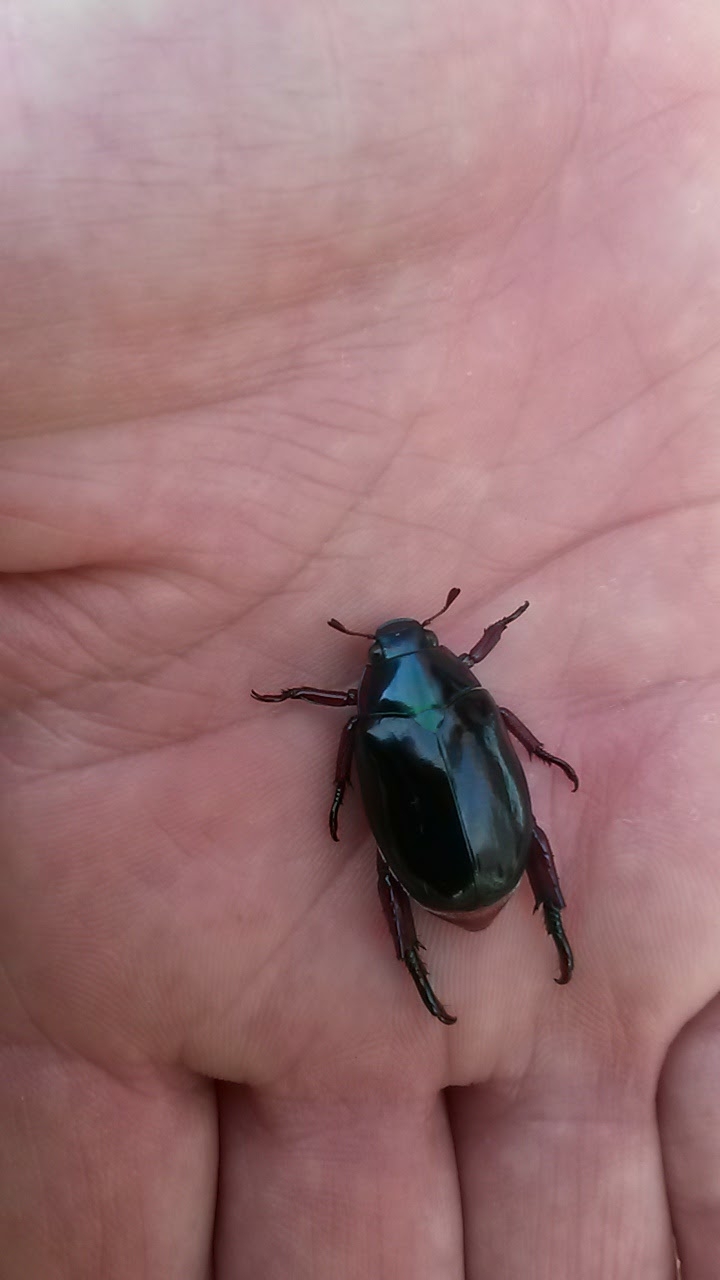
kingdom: Animalia
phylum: Arthropoda
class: Insecta
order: Coleoptera
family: Scarabaeidae
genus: Repsimus
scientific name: Repsimus aeneus
